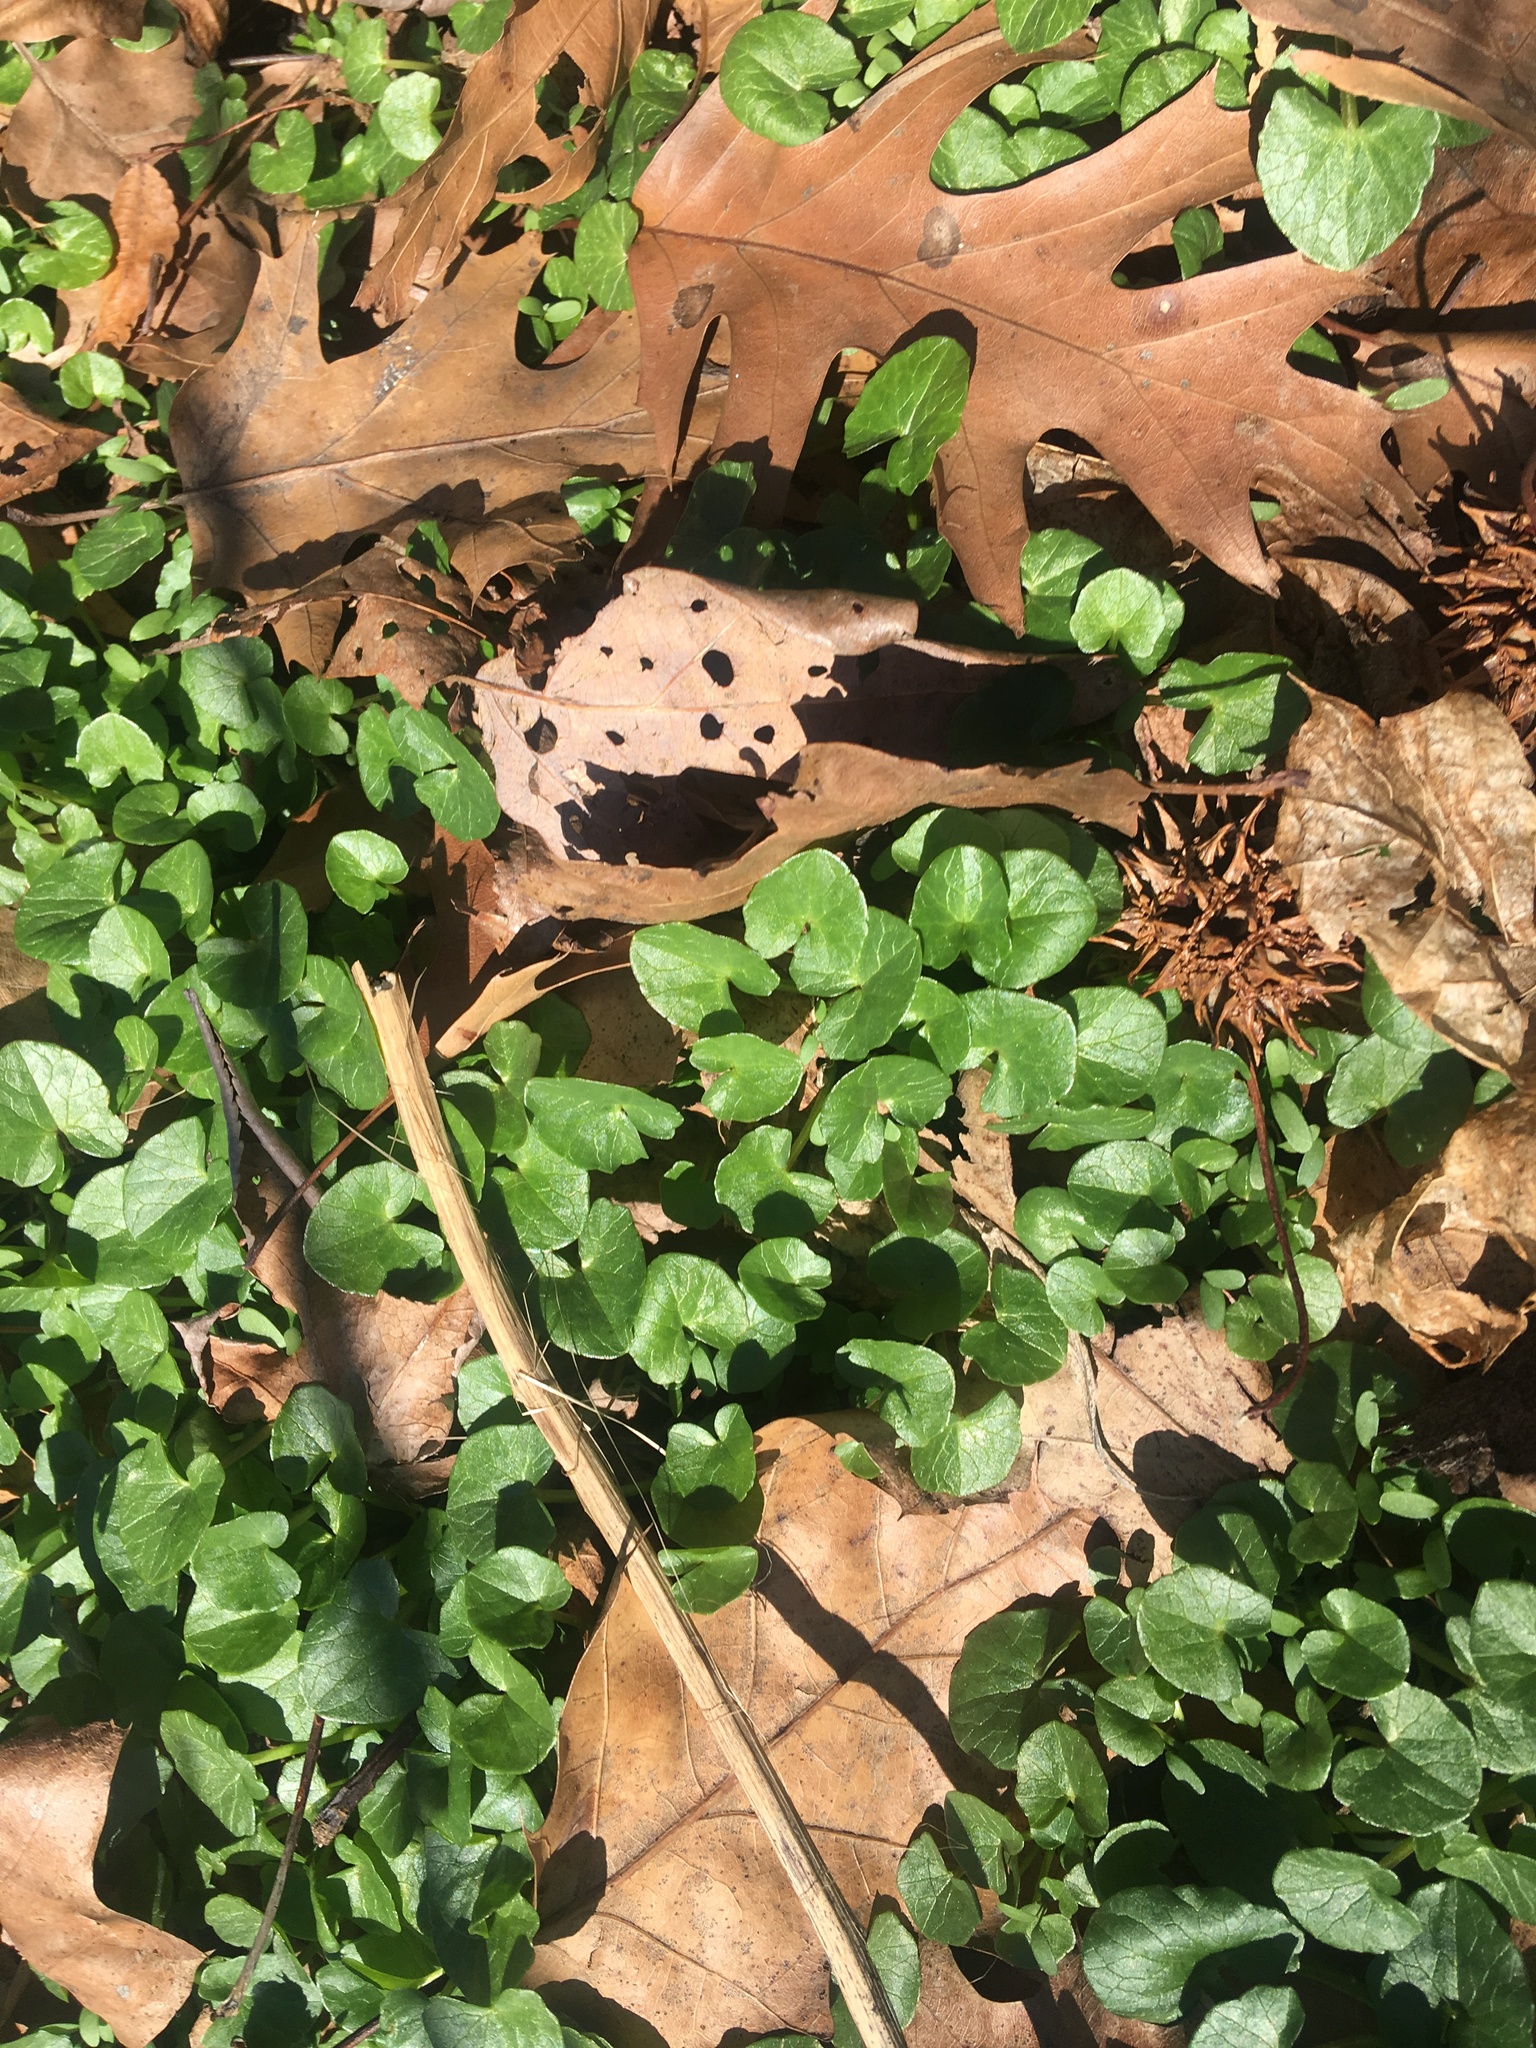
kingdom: Plantae
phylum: Tracheophyta
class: Magnoliopsida
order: Ranunculales
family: Ranunculaceae
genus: Ficaria
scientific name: Ficaria verna
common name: Lesser celandine
